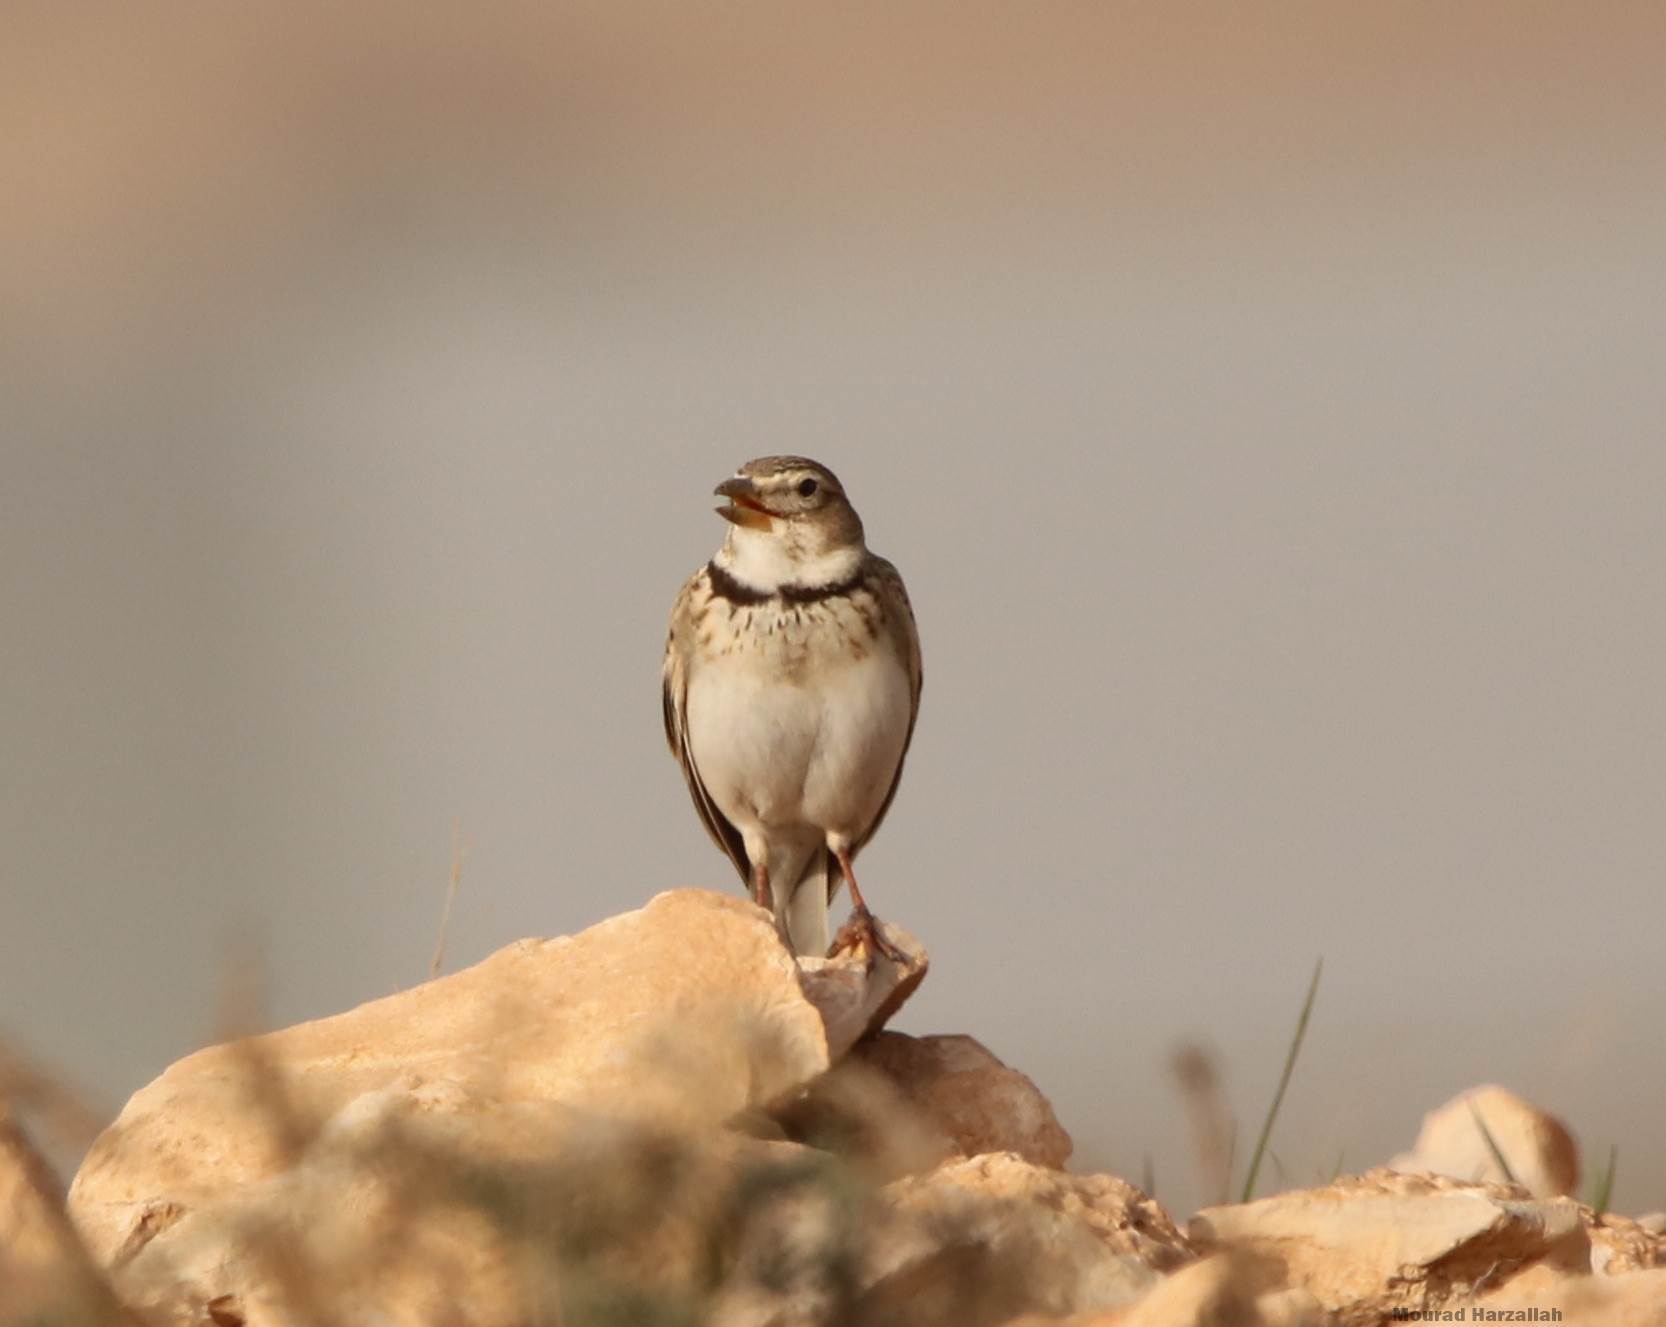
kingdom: Animalia
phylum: Chordata
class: Aves
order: Passeriformes
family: Alaudidae
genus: Melanocorypha
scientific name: Melanocorypha calandra
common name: Calandra lark
